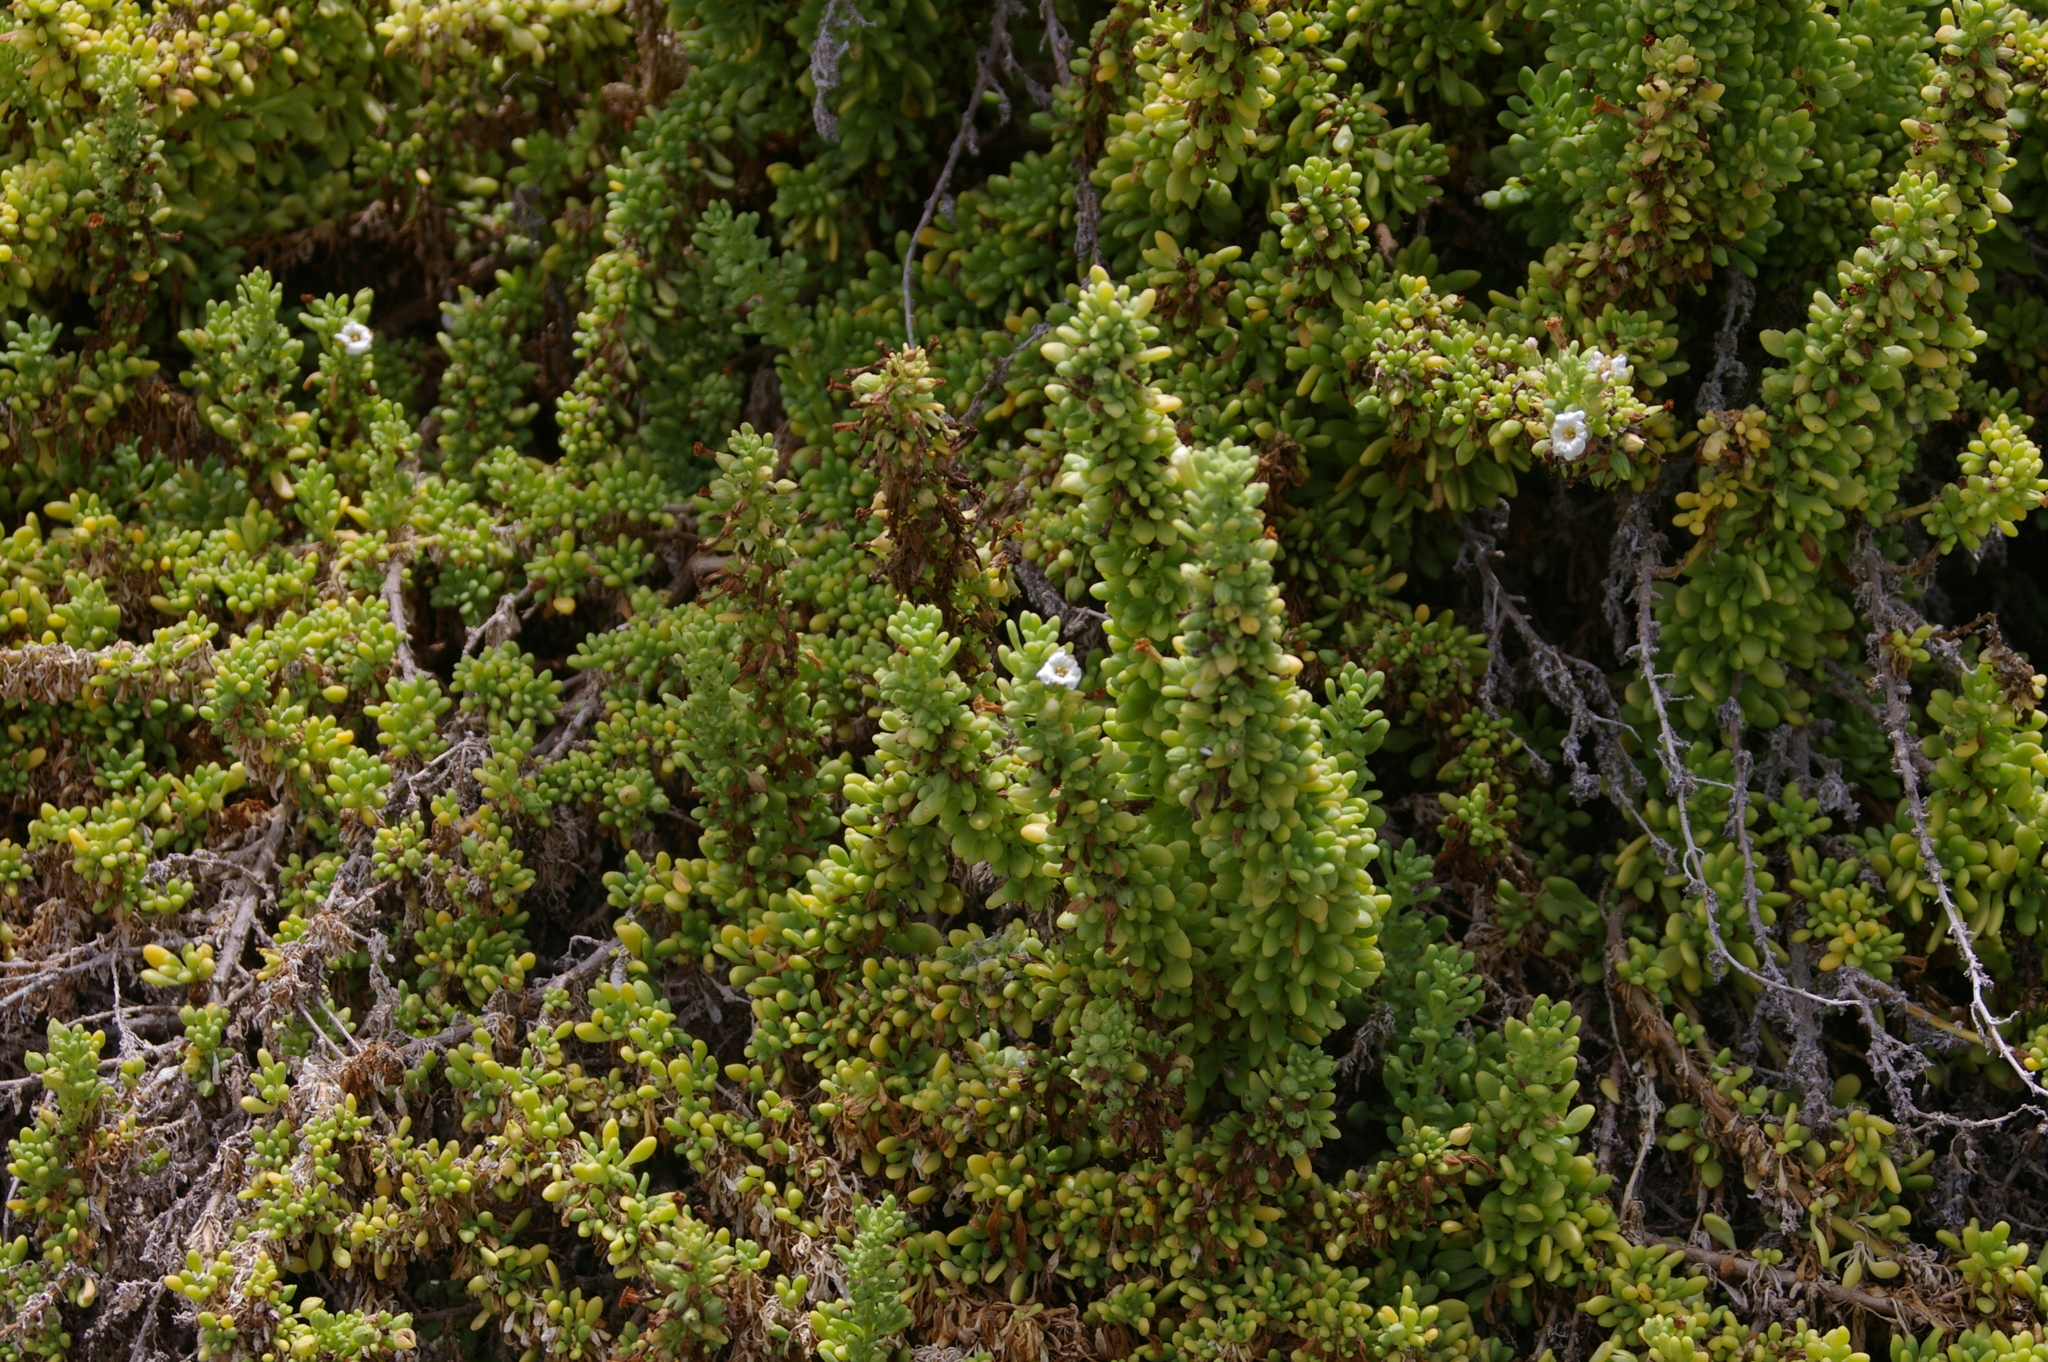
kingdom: Plantae
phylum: Tracheophyta
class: Magnoliopsida
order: Solanales
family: Solanaceae
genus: Nolana
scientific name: Nolana galapagensis
